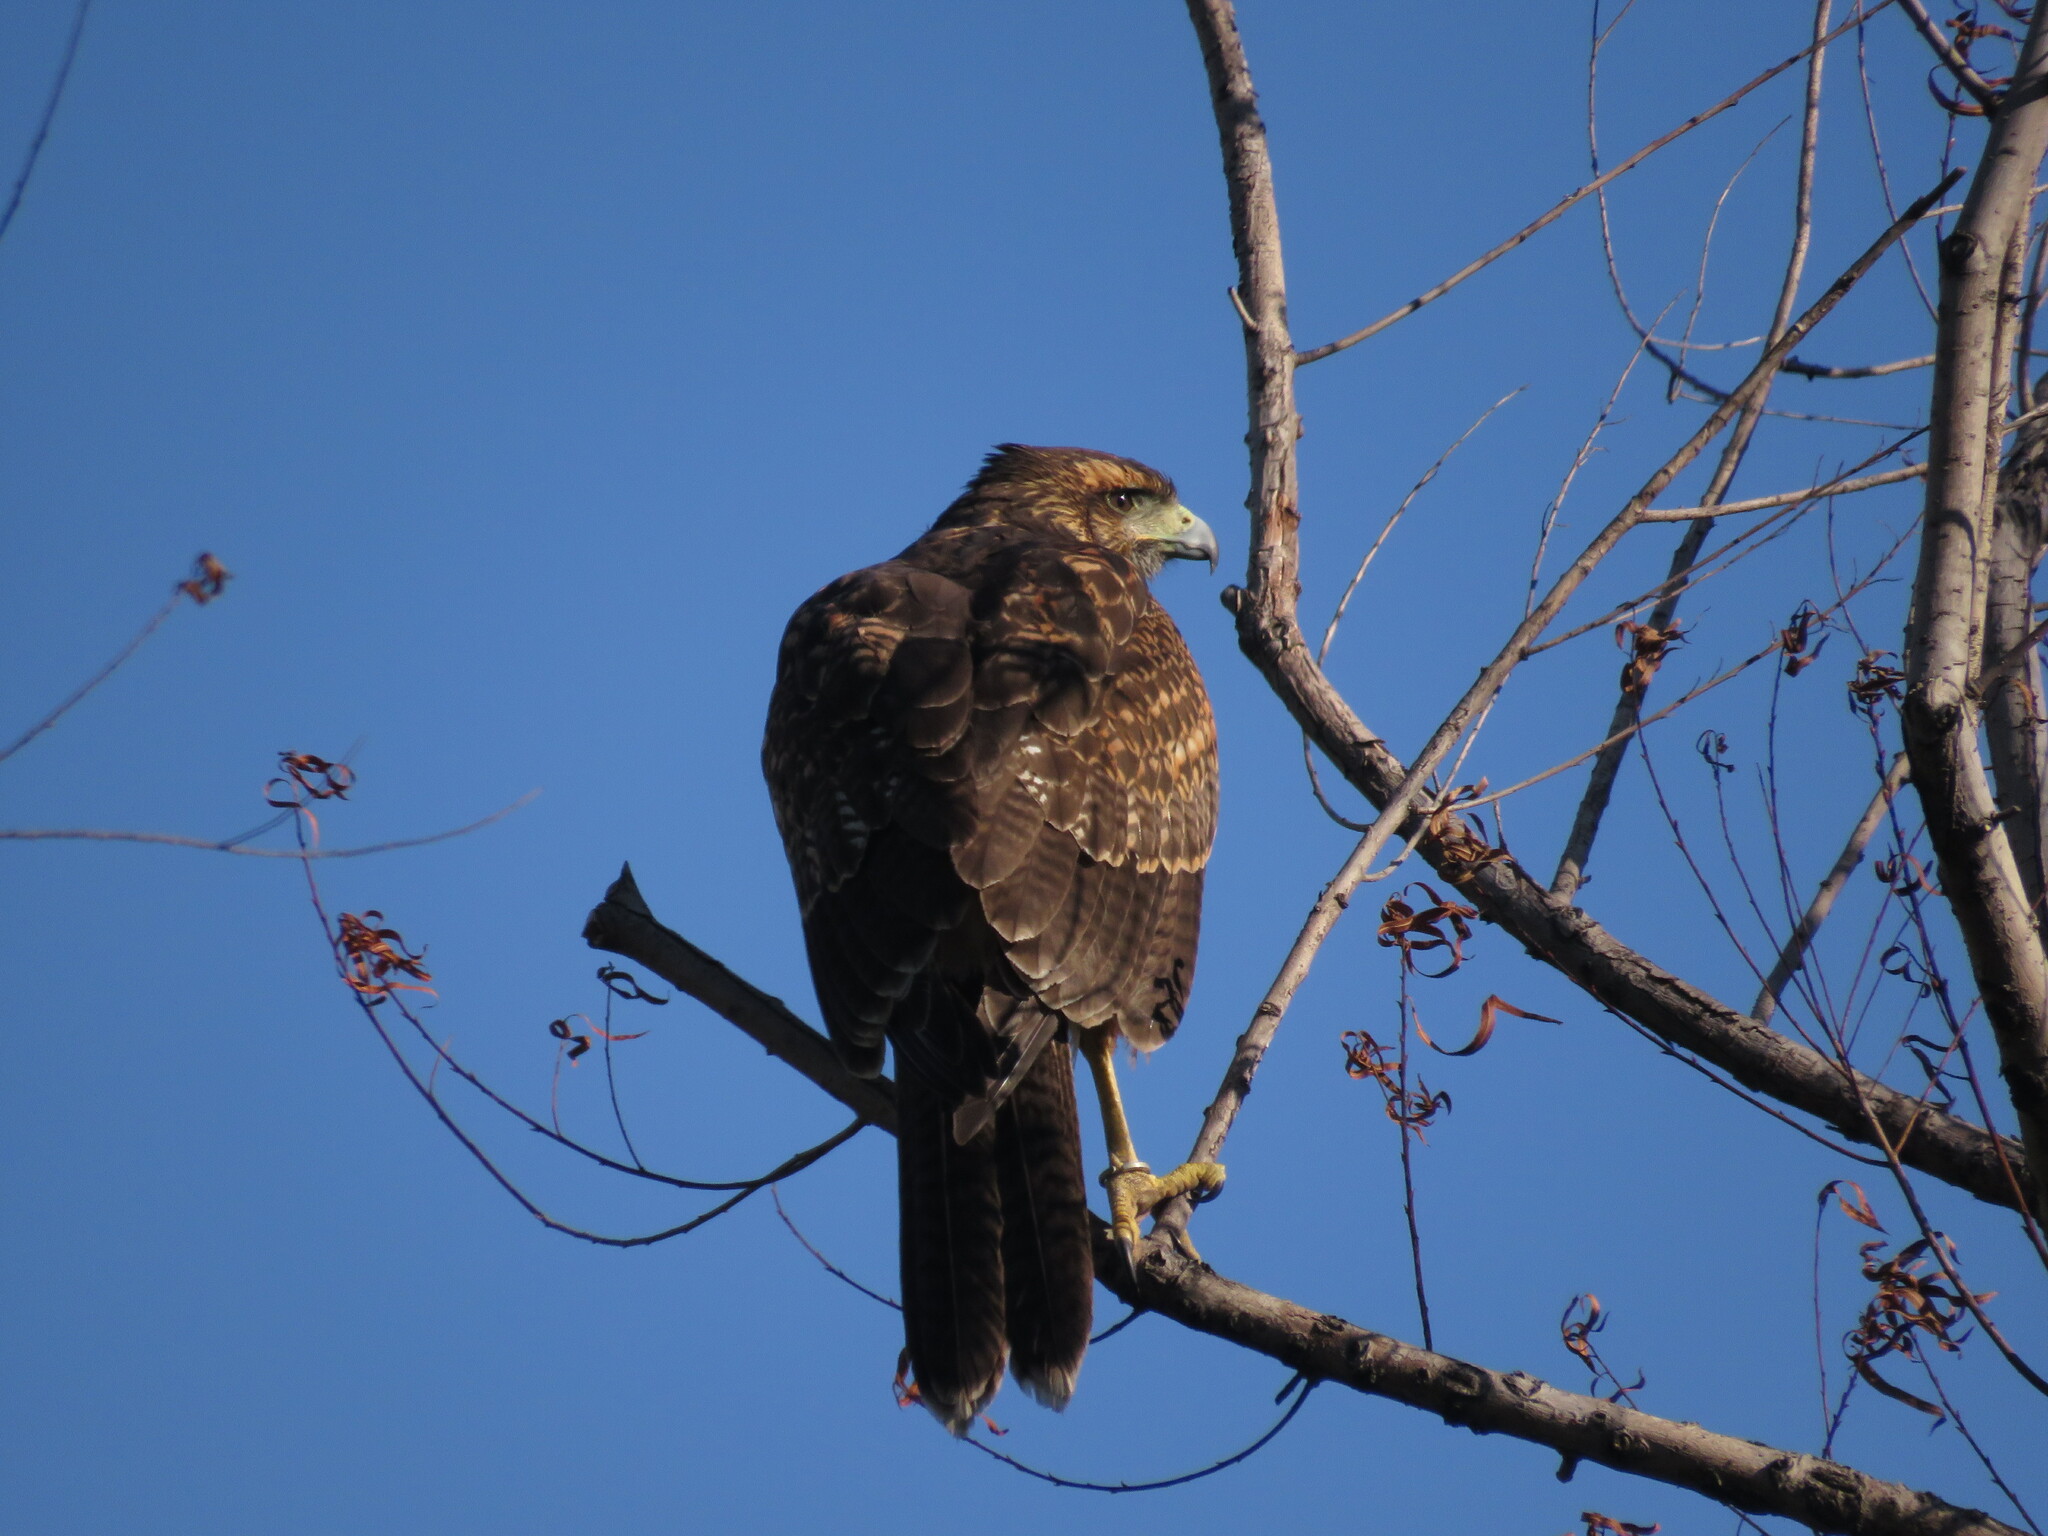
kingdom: Animalia
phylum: Chordata
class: Aves
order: Accipitriformes
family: Accipitridae
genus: Parabuteo
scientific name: Parabuteo unicinctus
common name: Harris's hawk
